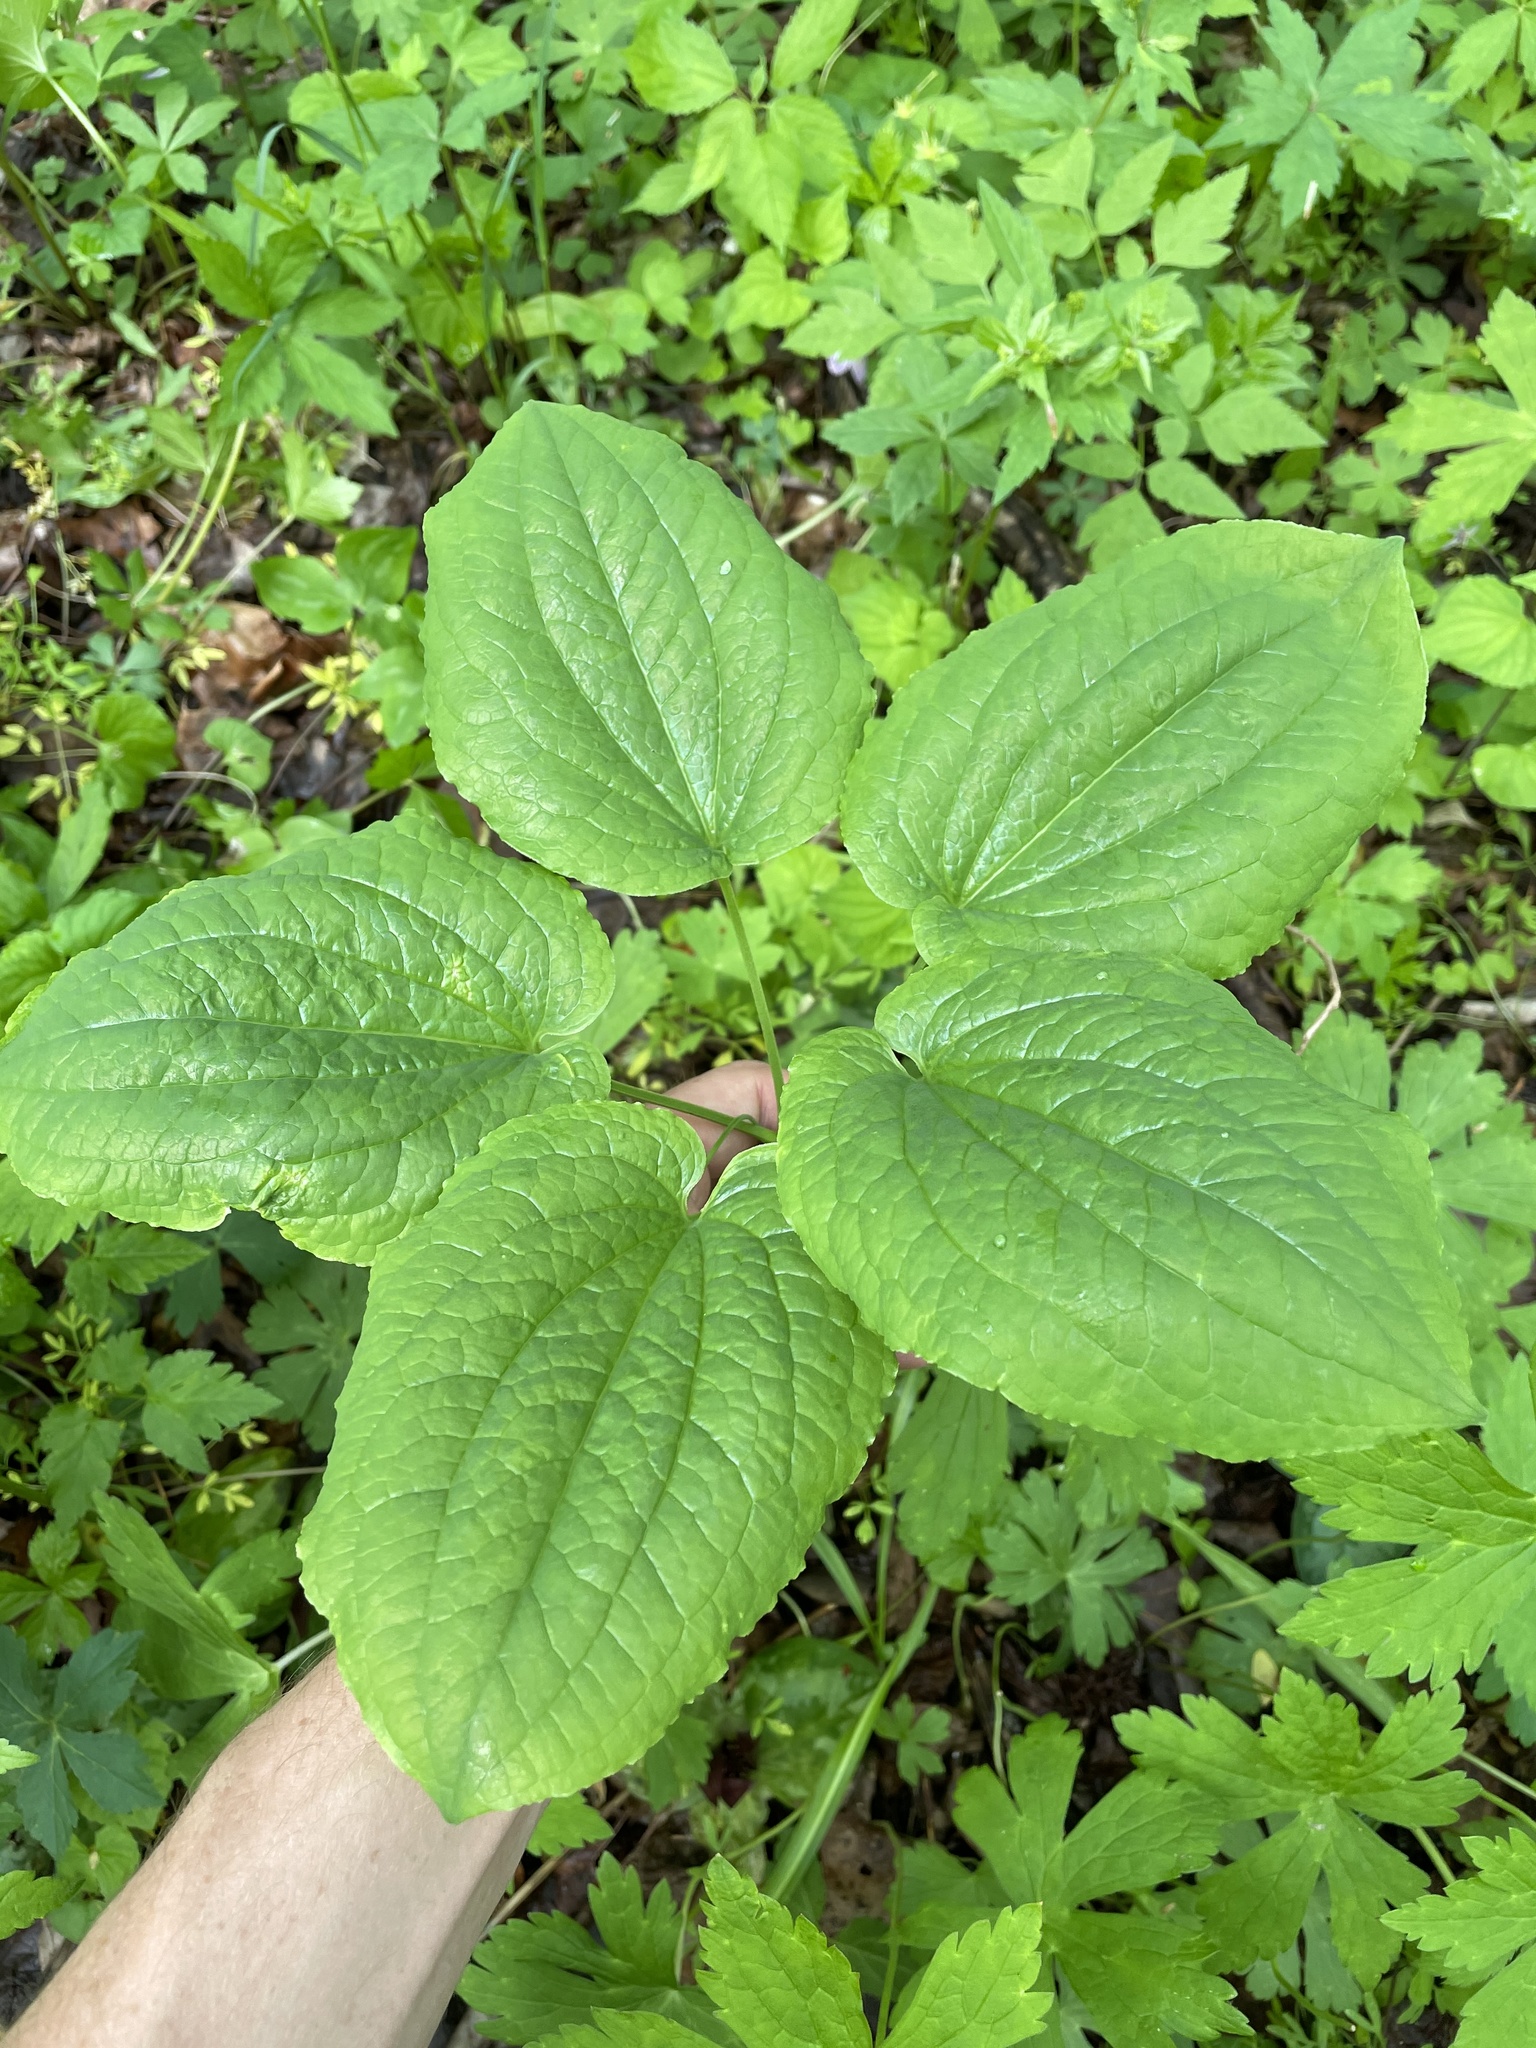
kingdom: Plantae
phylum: Tracheophyta
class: Liliopsida
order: Liliales
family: Smilacaceae
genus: Smilax
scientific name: Smilax herbacea
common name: Jacob's-ladder
